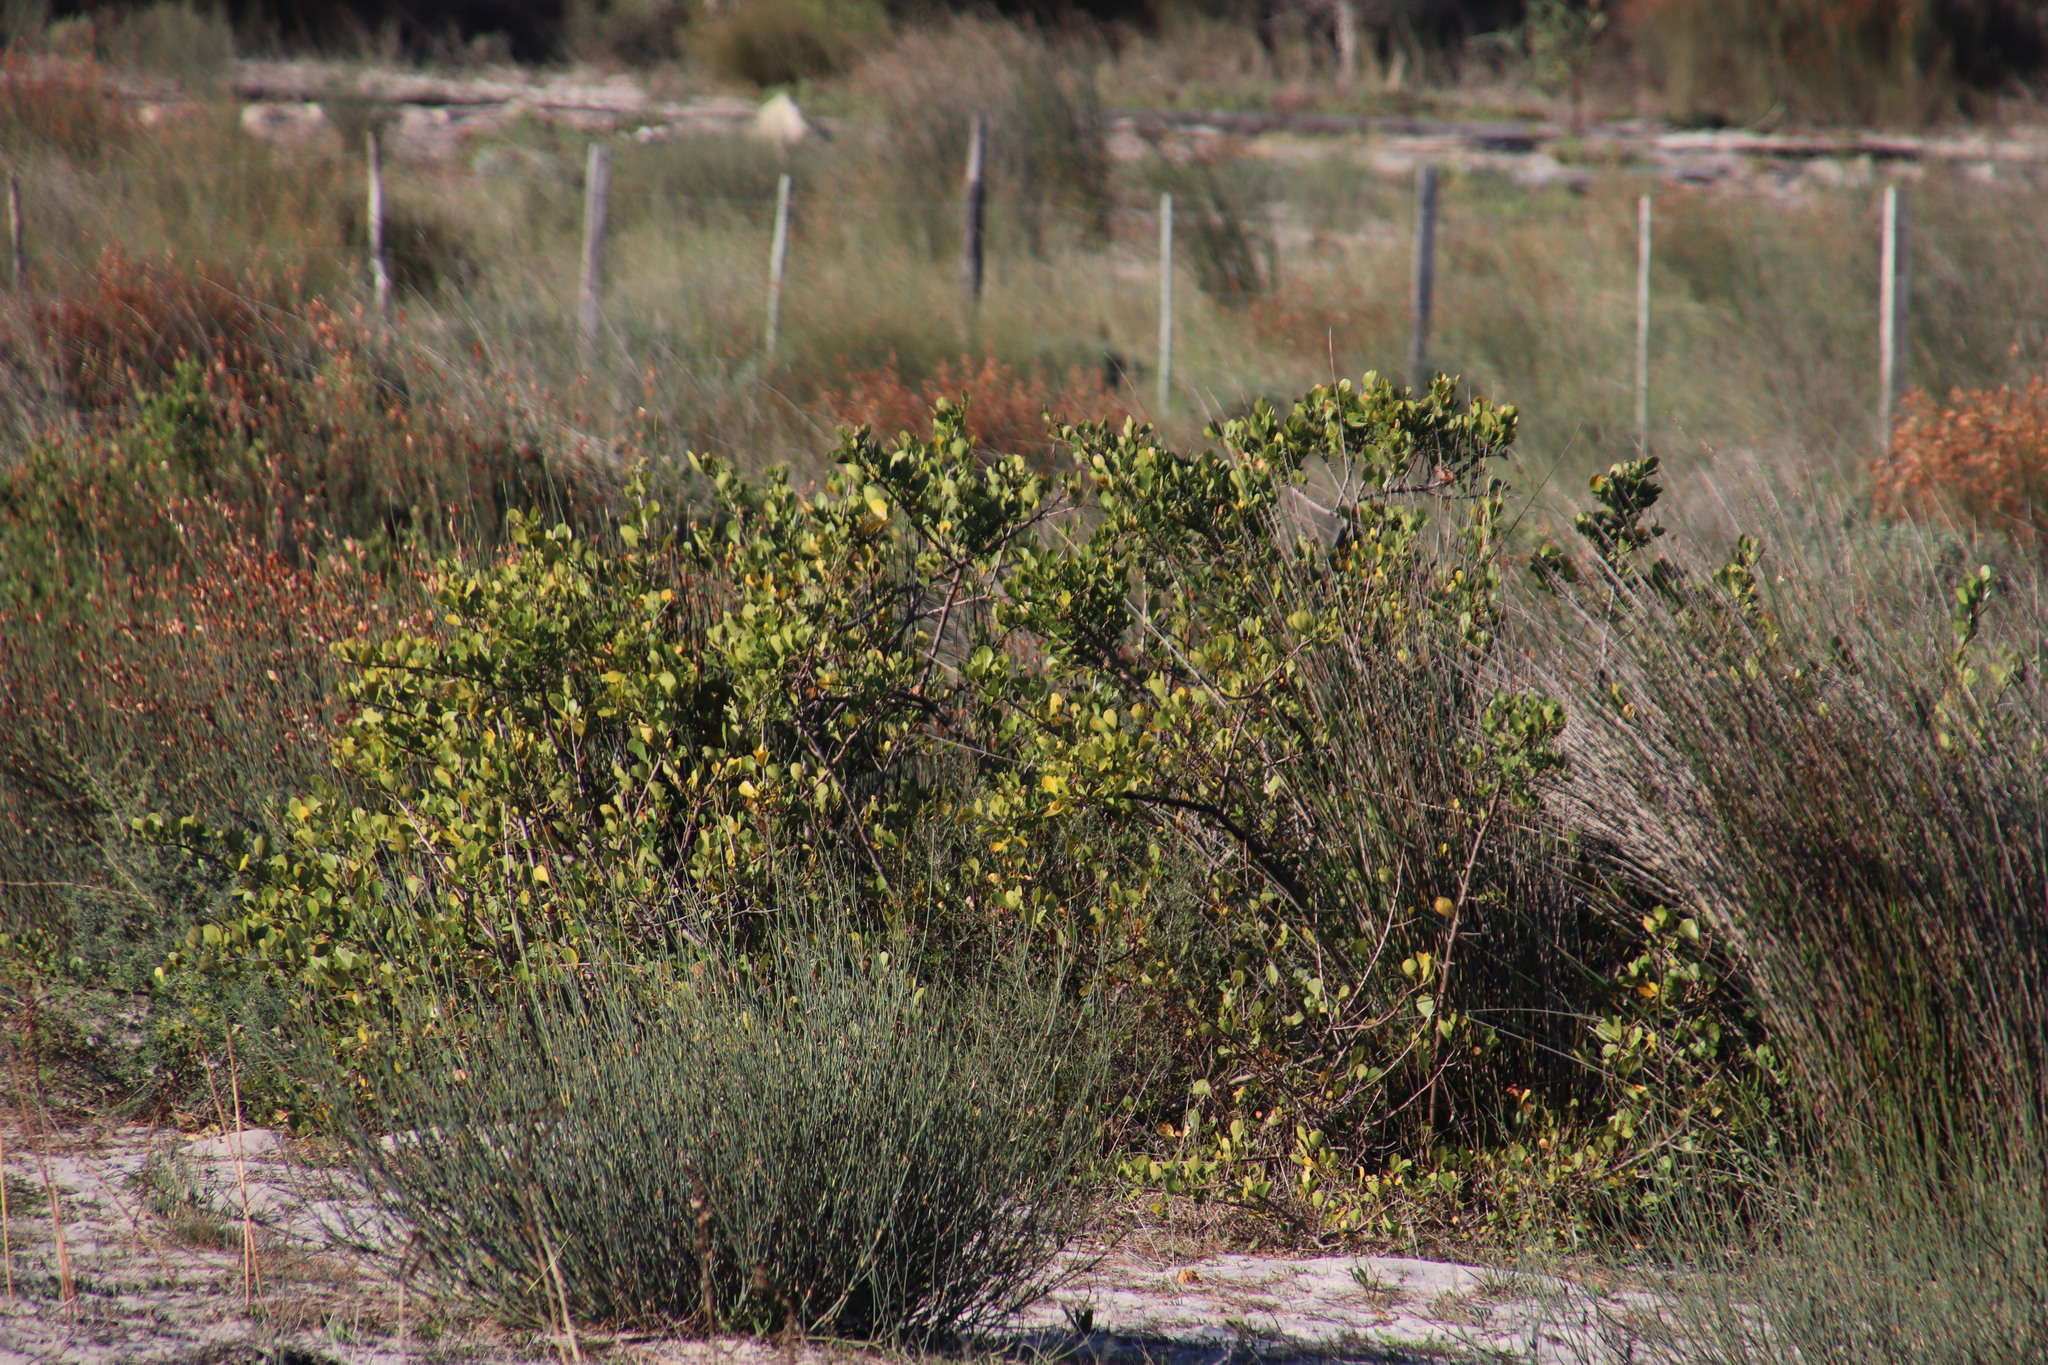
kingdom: Plantae
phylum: Tracheophyta
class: Magnoliopsida
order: Sapindales
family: Anacardiaceae
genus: Searsia
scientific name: Searsia laevigata
